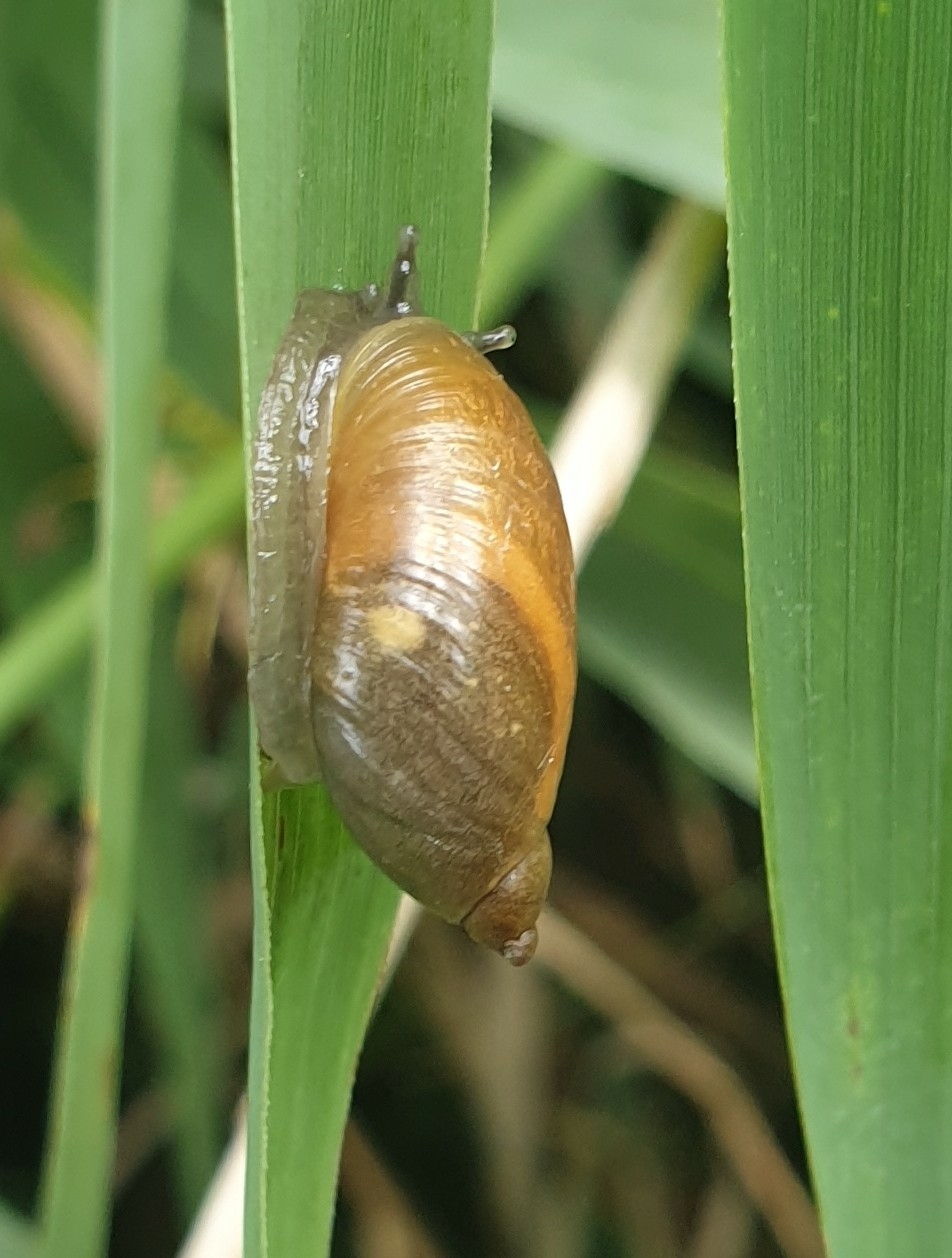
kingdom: Animalia
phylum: Mollusca
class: Gastropoda
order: Stylommatophora
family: Succineidae
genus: Succinea
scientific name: Succinea putris
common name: European ambersnail
